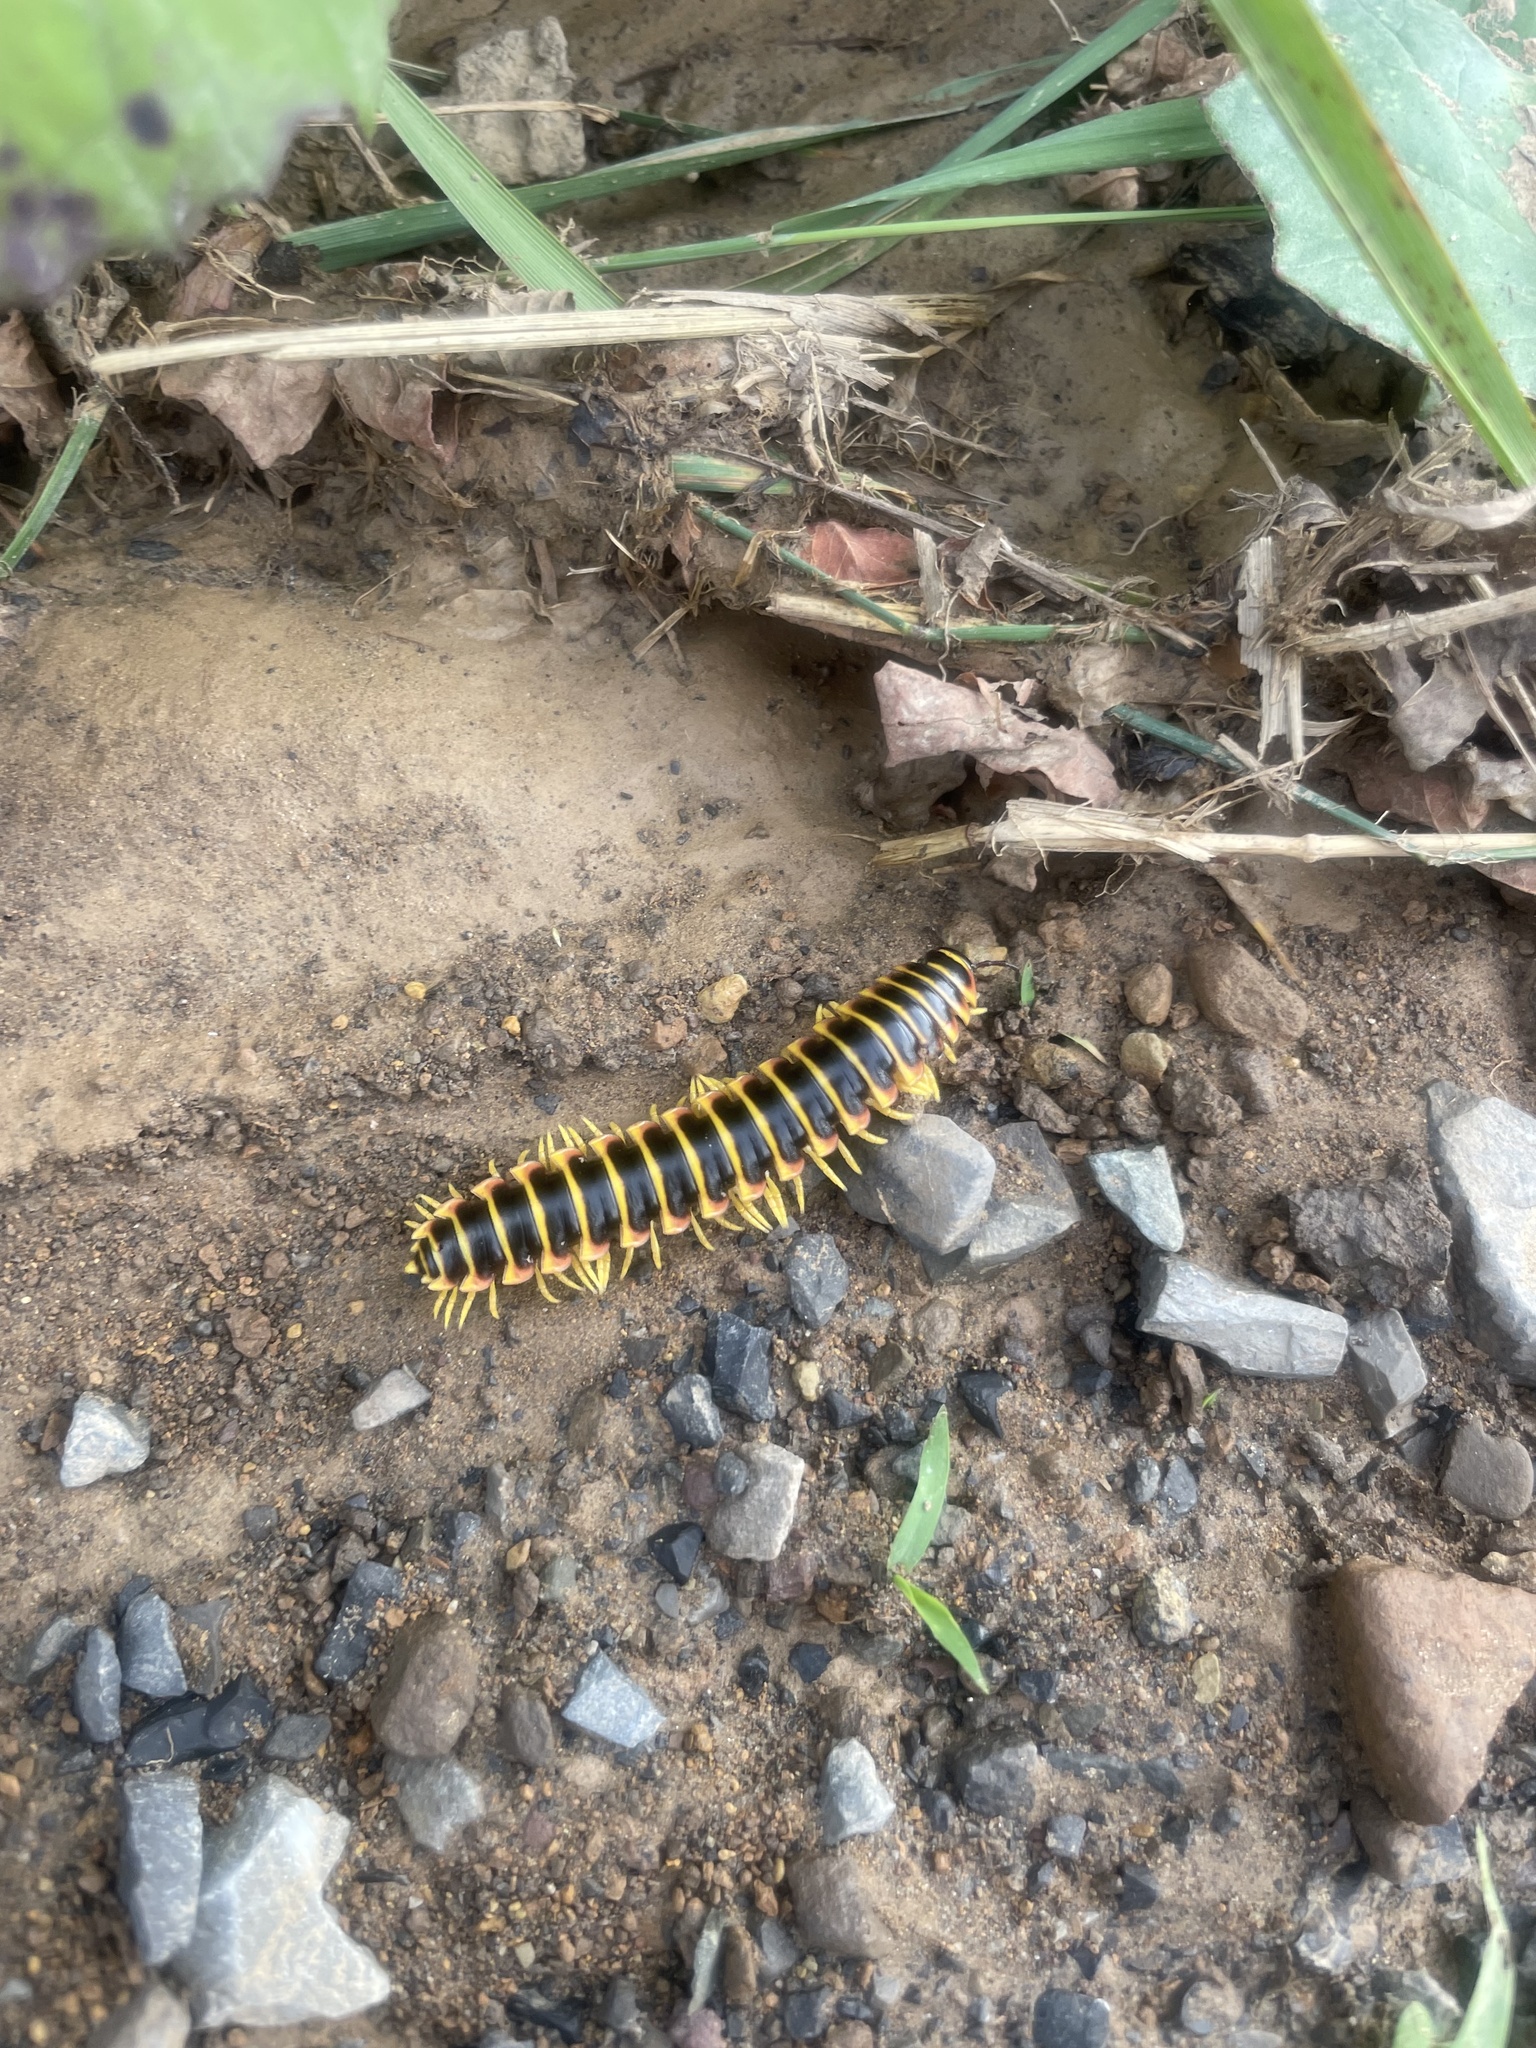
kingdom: Animalia
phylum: Arthropoda
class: Diplopoda
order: Polydesmida
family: Xystodesmidae
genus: Apheloria
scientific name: Apheloria virginiensis
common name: Black-and-gold flat millipede
